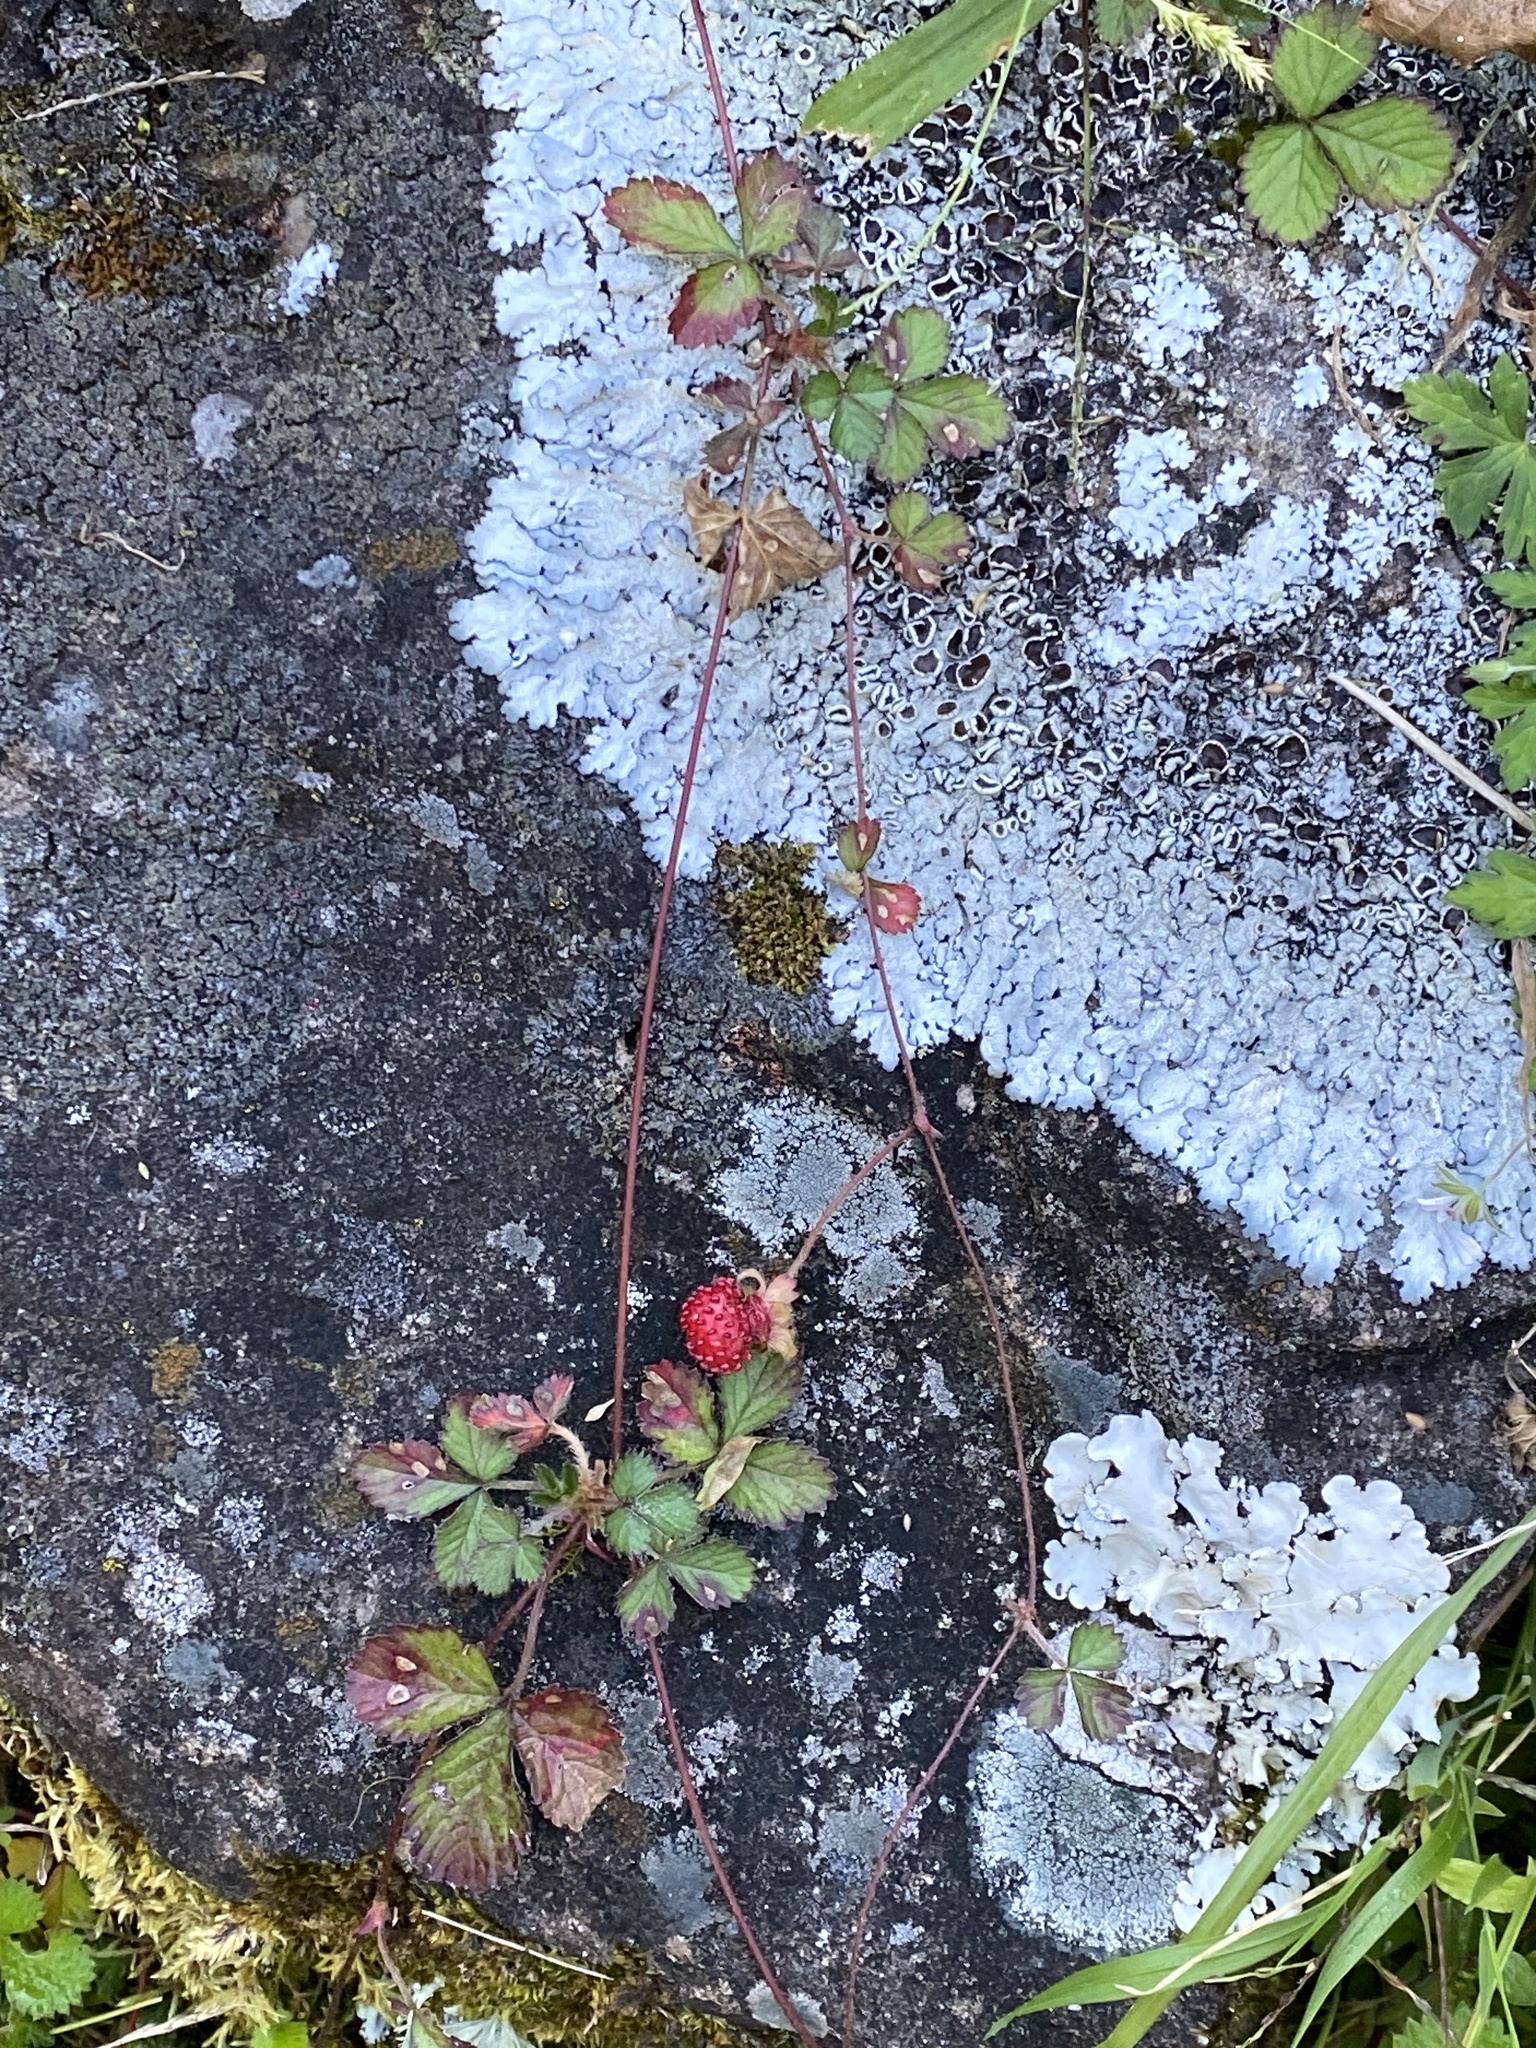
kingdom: Plantae
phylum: Tracheophyta
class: Magnoliopsida
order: Rosales
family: Rosaceae
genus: Potentilla
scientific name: Potentilla indica
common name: Yellow-flowered strawberry
